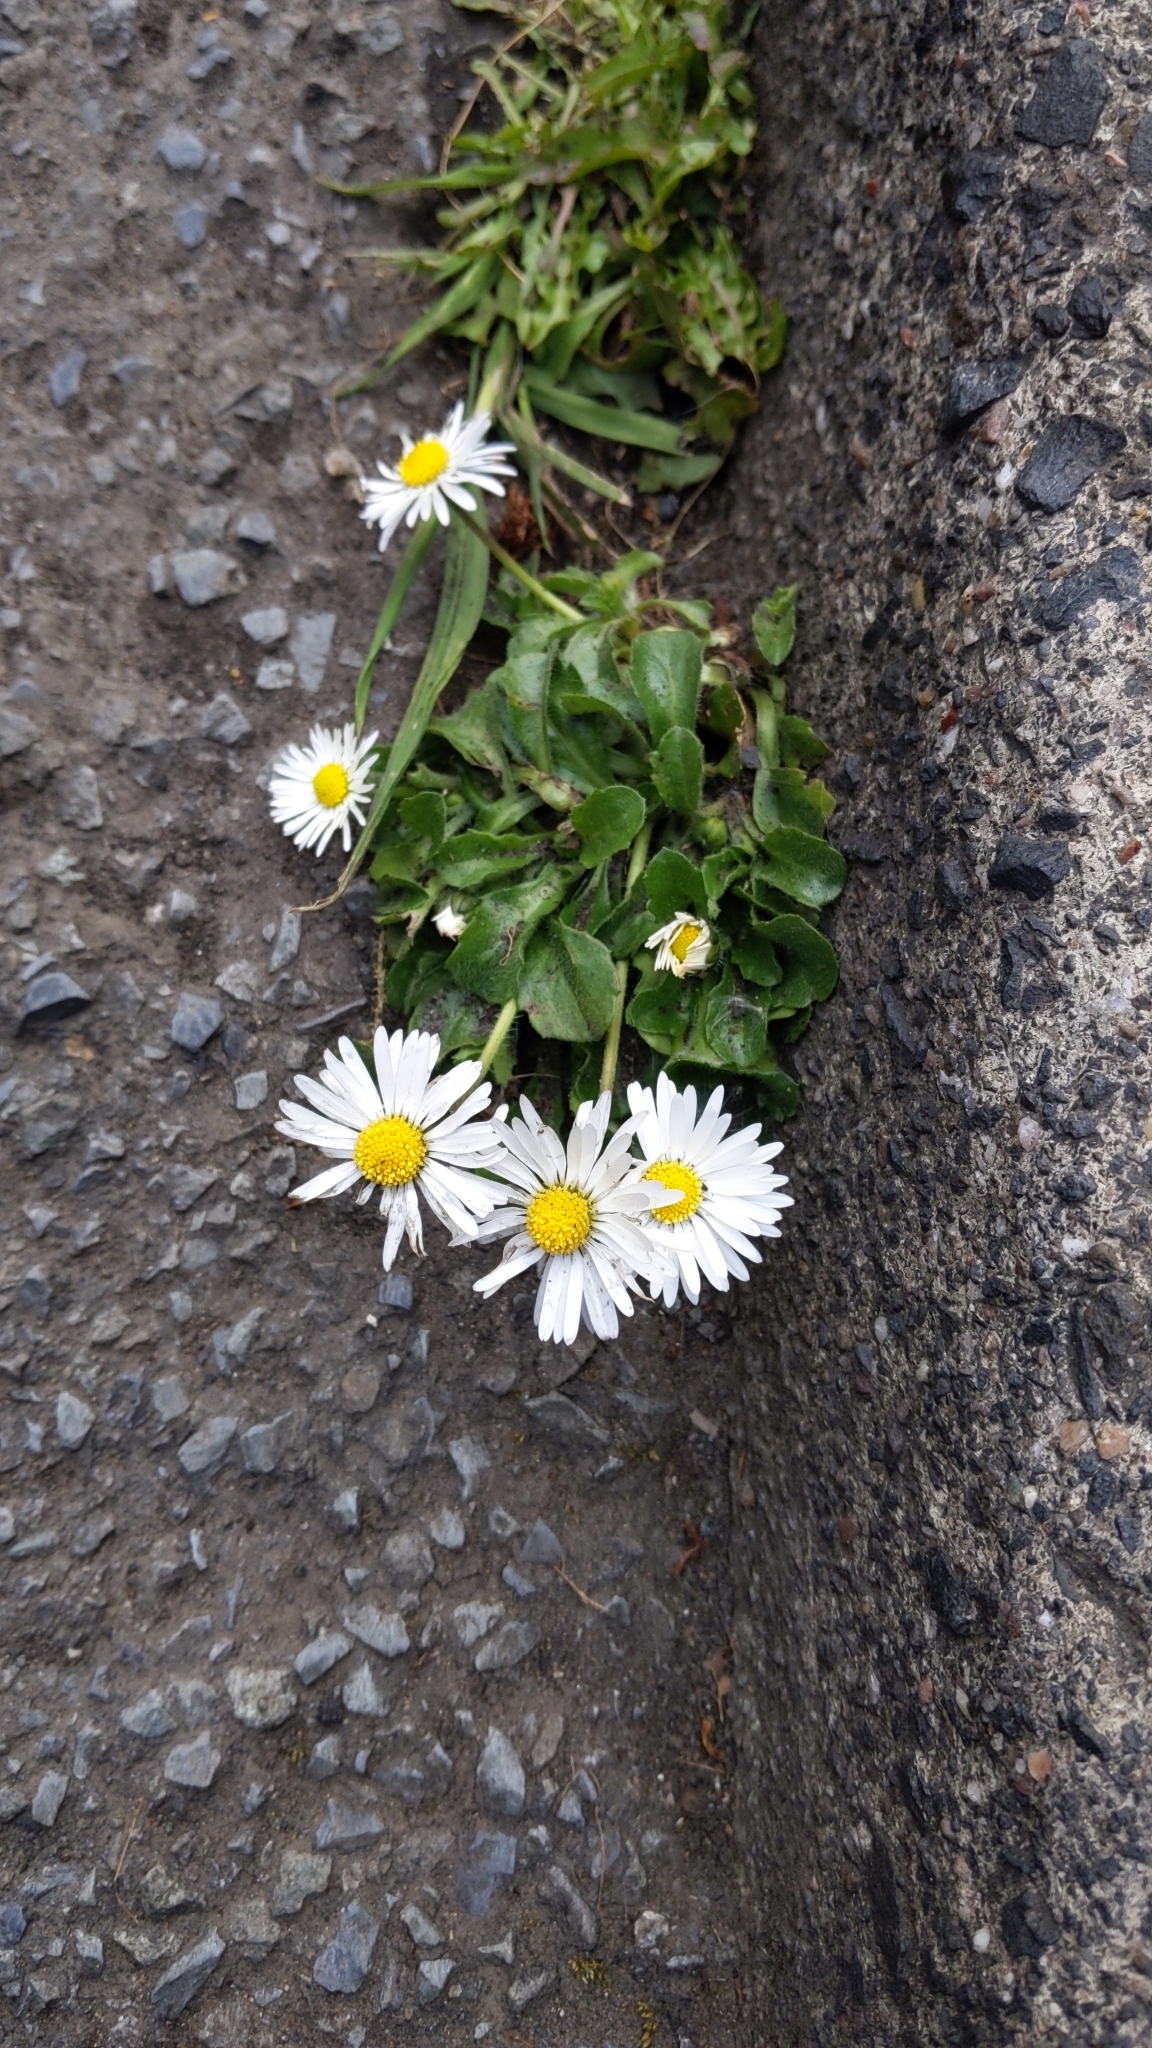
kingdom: Plantae
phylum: Tracheophyta
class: Magnoliopsida
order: Asterales
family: Asteraceae
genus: Bellis
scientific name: Bellis perennis
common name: Lawndaisy
